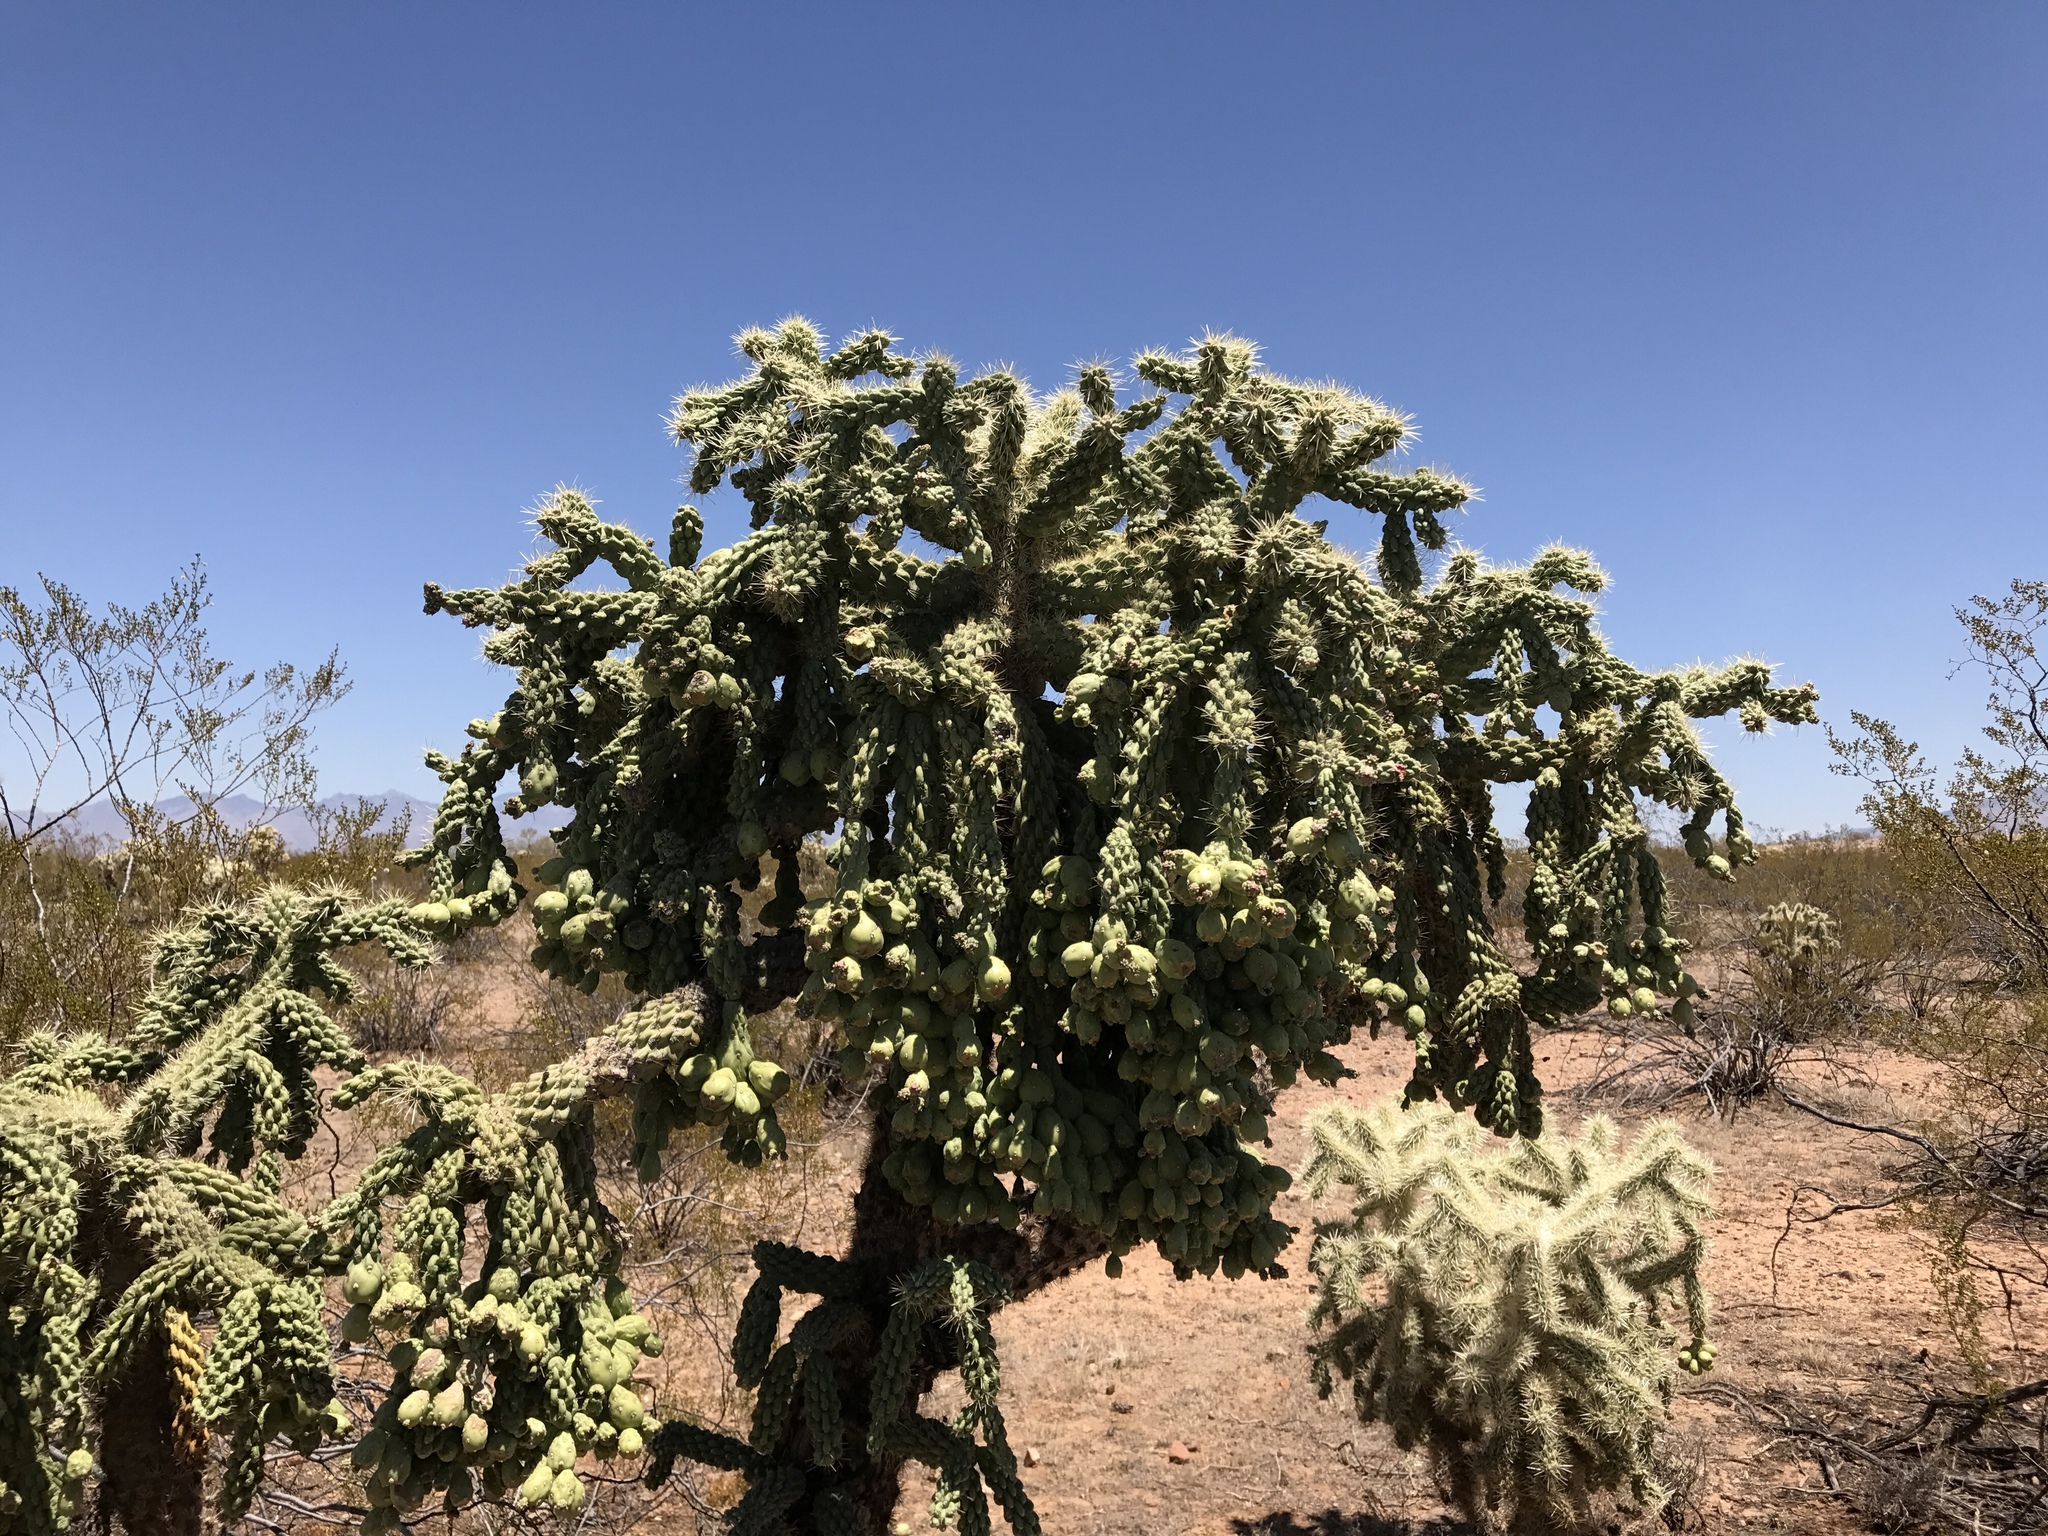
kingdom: Plantae
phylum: Tracheophyta
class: Magnoliopsida
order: Caryophyllales
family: Cactaceae
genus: Cylindropuntia
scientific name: Cylindropuntia fulgida
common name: Jumping cholla
